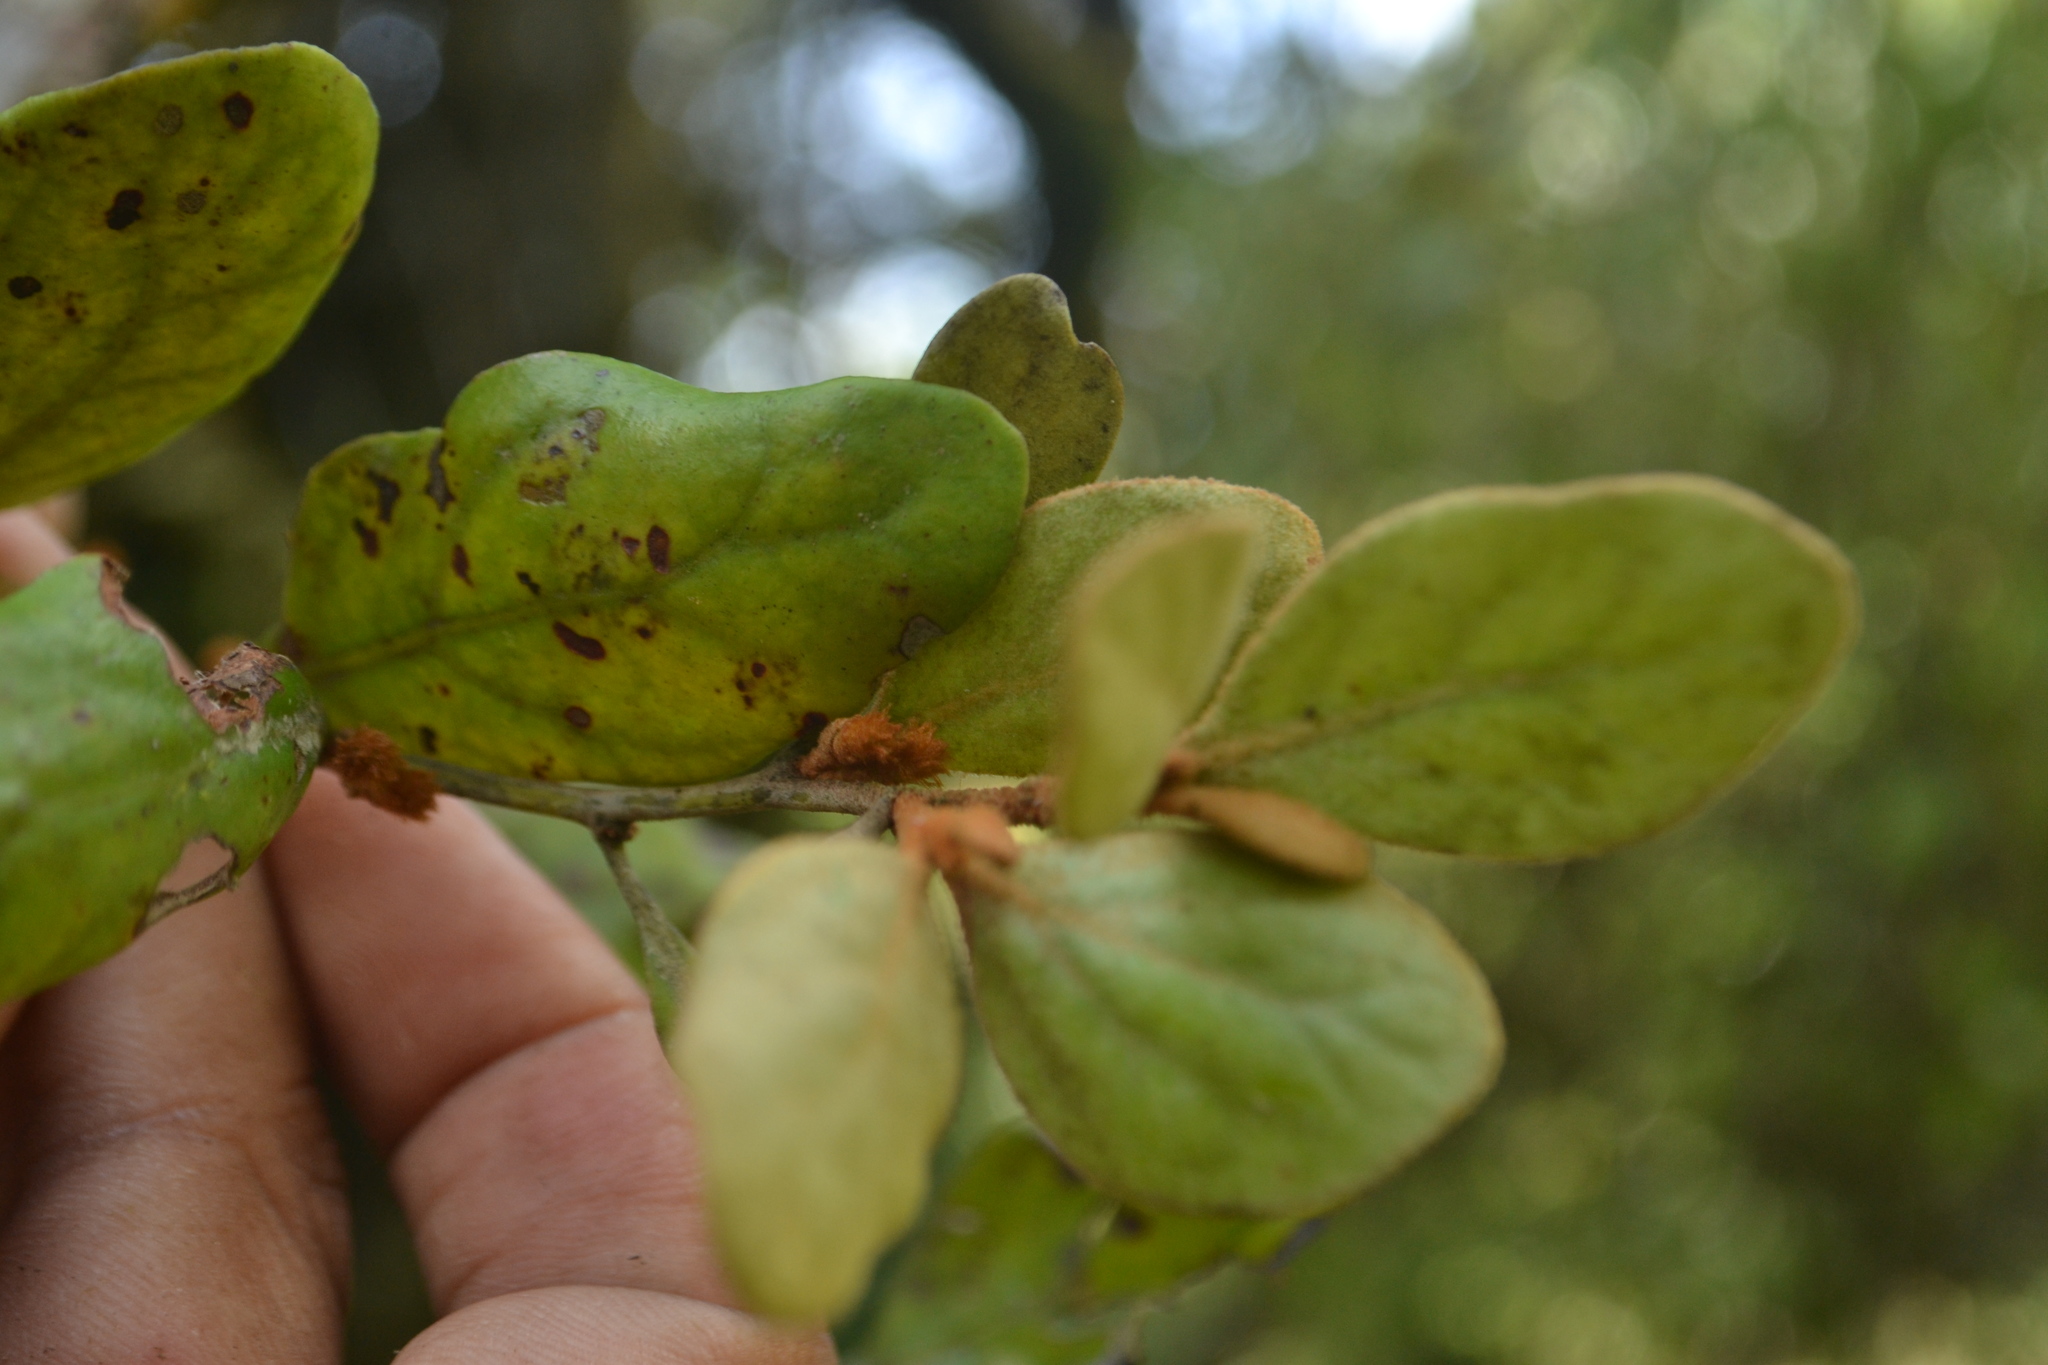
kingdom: Plantae
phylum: Tracheophyta
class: Magnoliopsida
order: Santalales
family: Loranthaceae
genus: Taxillus
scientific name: Taxillus tomentosus
